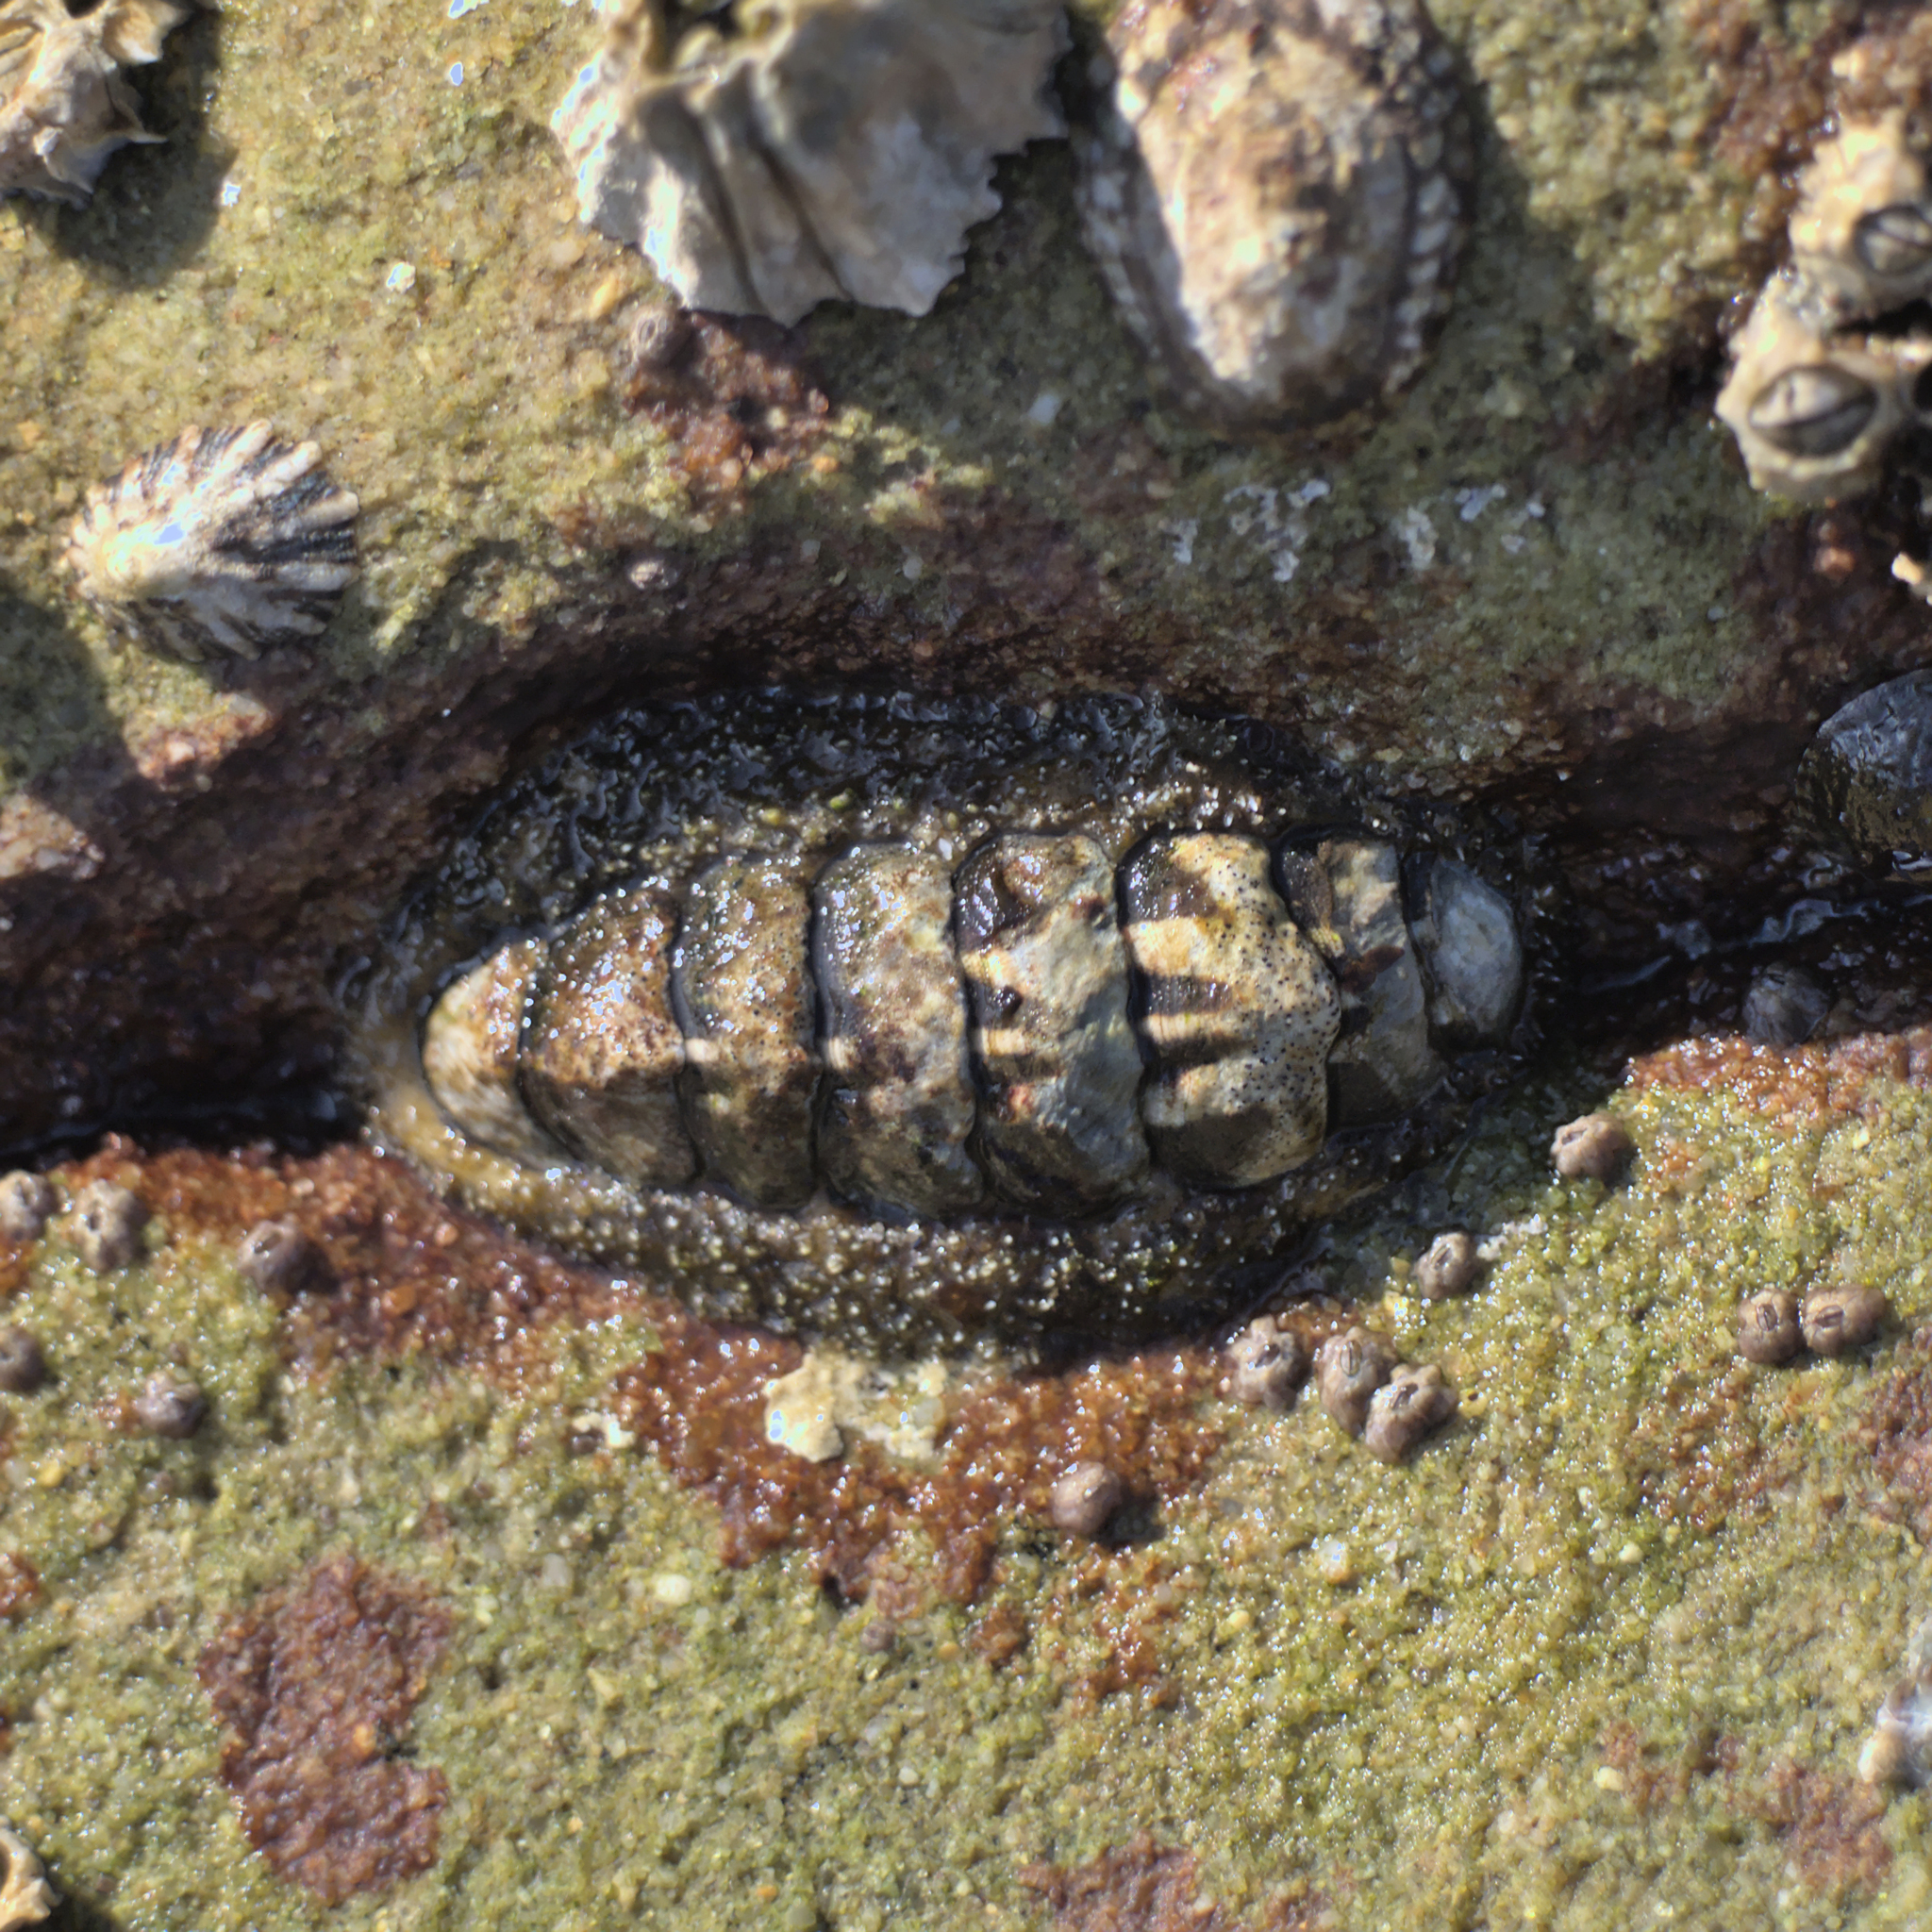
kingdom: Animalia
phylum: Mollusca
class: Polyplacophora
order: Chitonida
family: Tonicellidae
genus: Nuttallina
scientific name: Nuttallina californica
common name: California nuttall chiton
